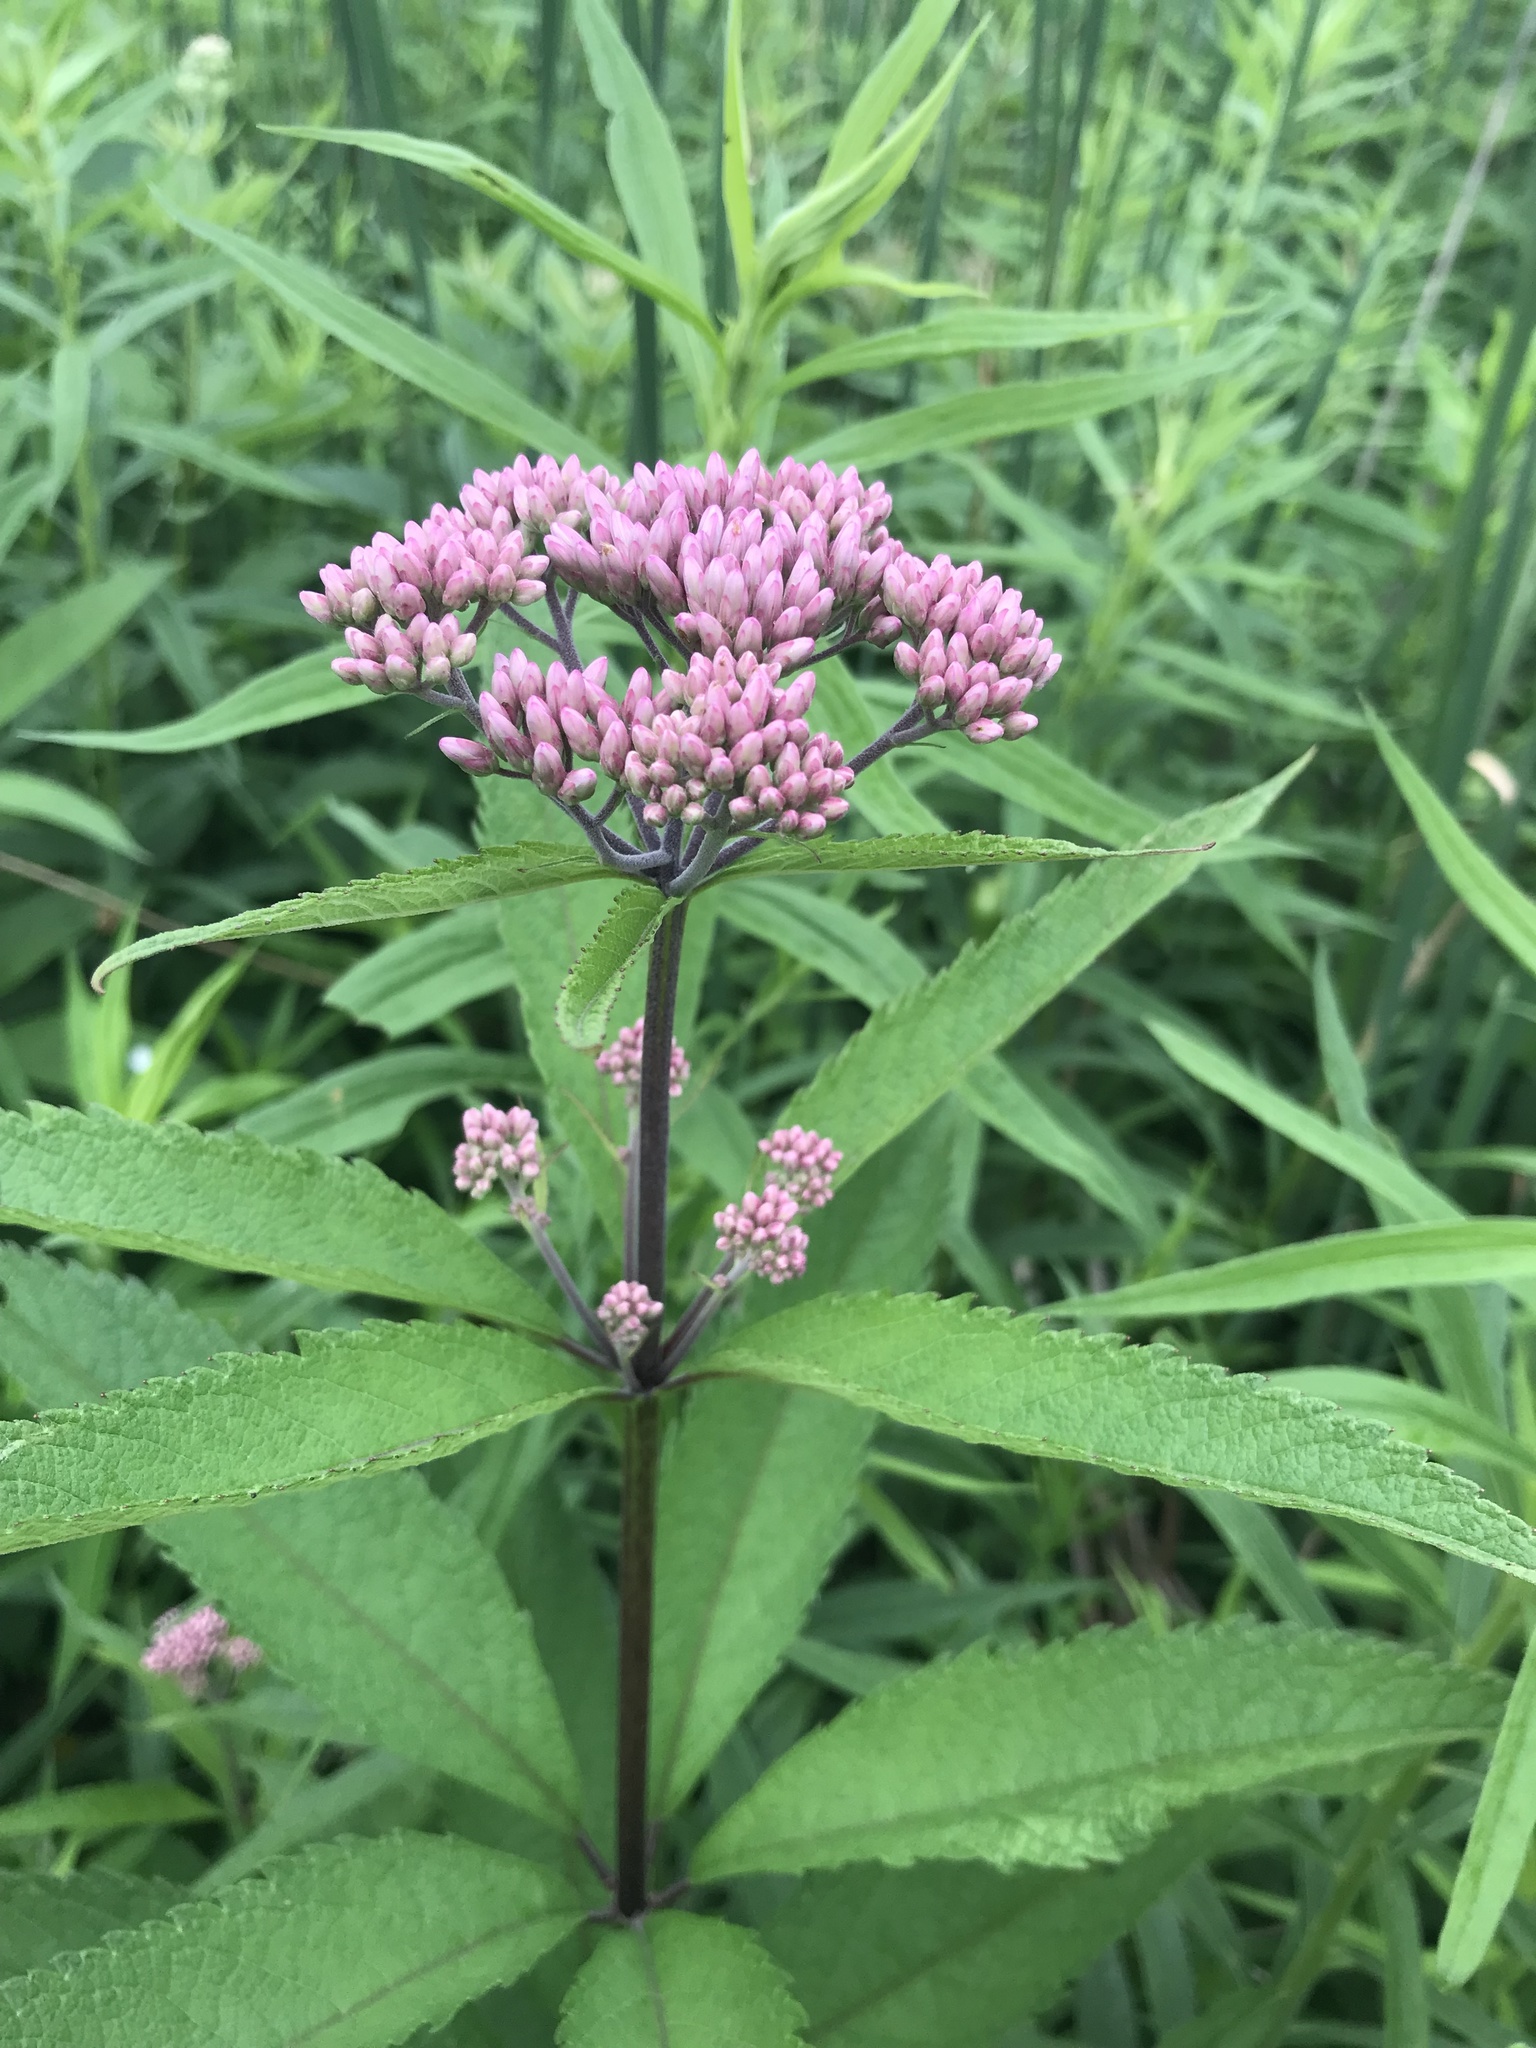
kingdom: Plantae
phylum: Tracheophyta
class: Magnoliopsida
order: Asterales
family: Asteraceae
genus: Eutrochium
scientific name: Eutrochium maculatum
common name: Spotted joe pye weed
